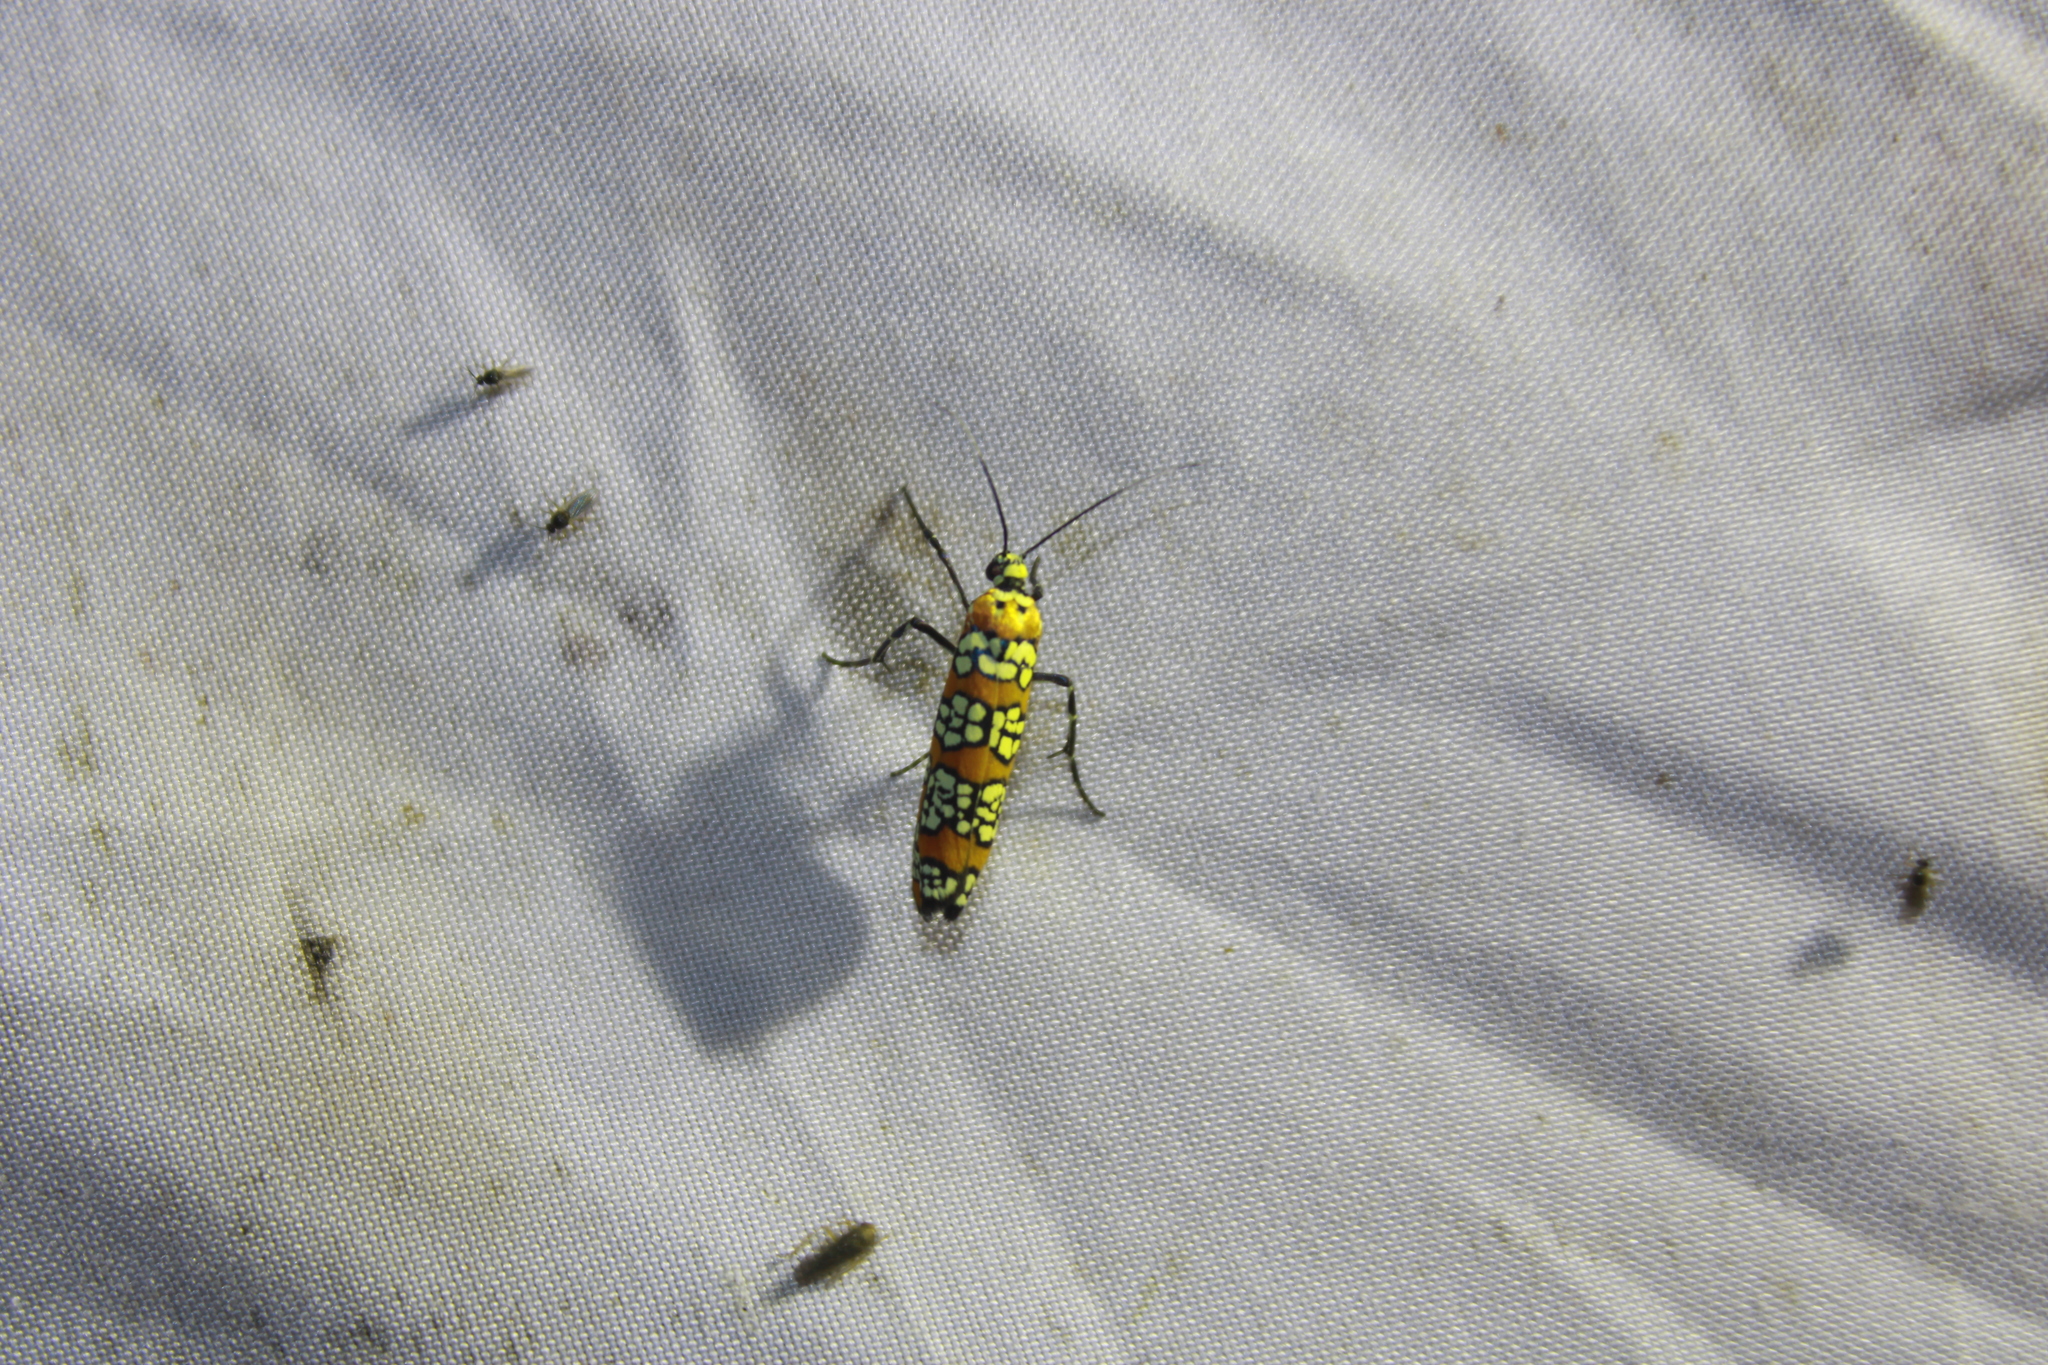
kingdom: Animalia
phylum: Arthropoda
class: Insecta
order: Lepidoptera
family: Attevidae
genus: Atteva
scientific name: Atteva punctella
